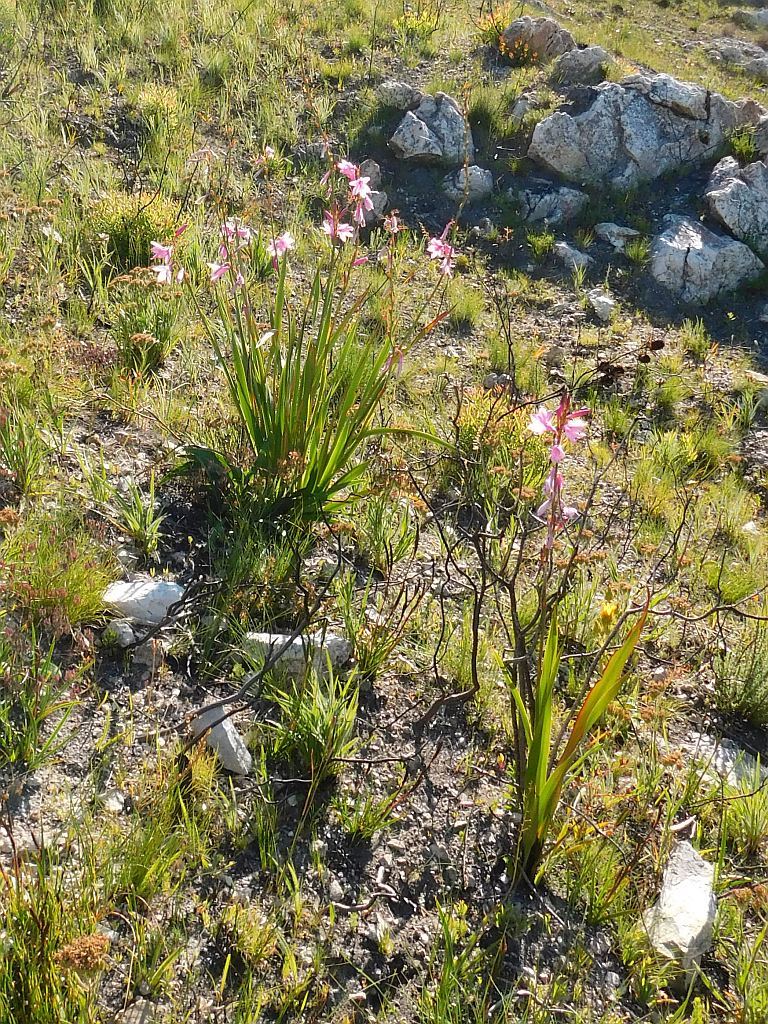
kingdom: Plantae
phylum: Tracheophyta
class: Liliopsida
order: Asparagales
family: Iridaceae
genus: Watsonia
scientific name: Watsonia borbonica
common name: Bugle-lily
